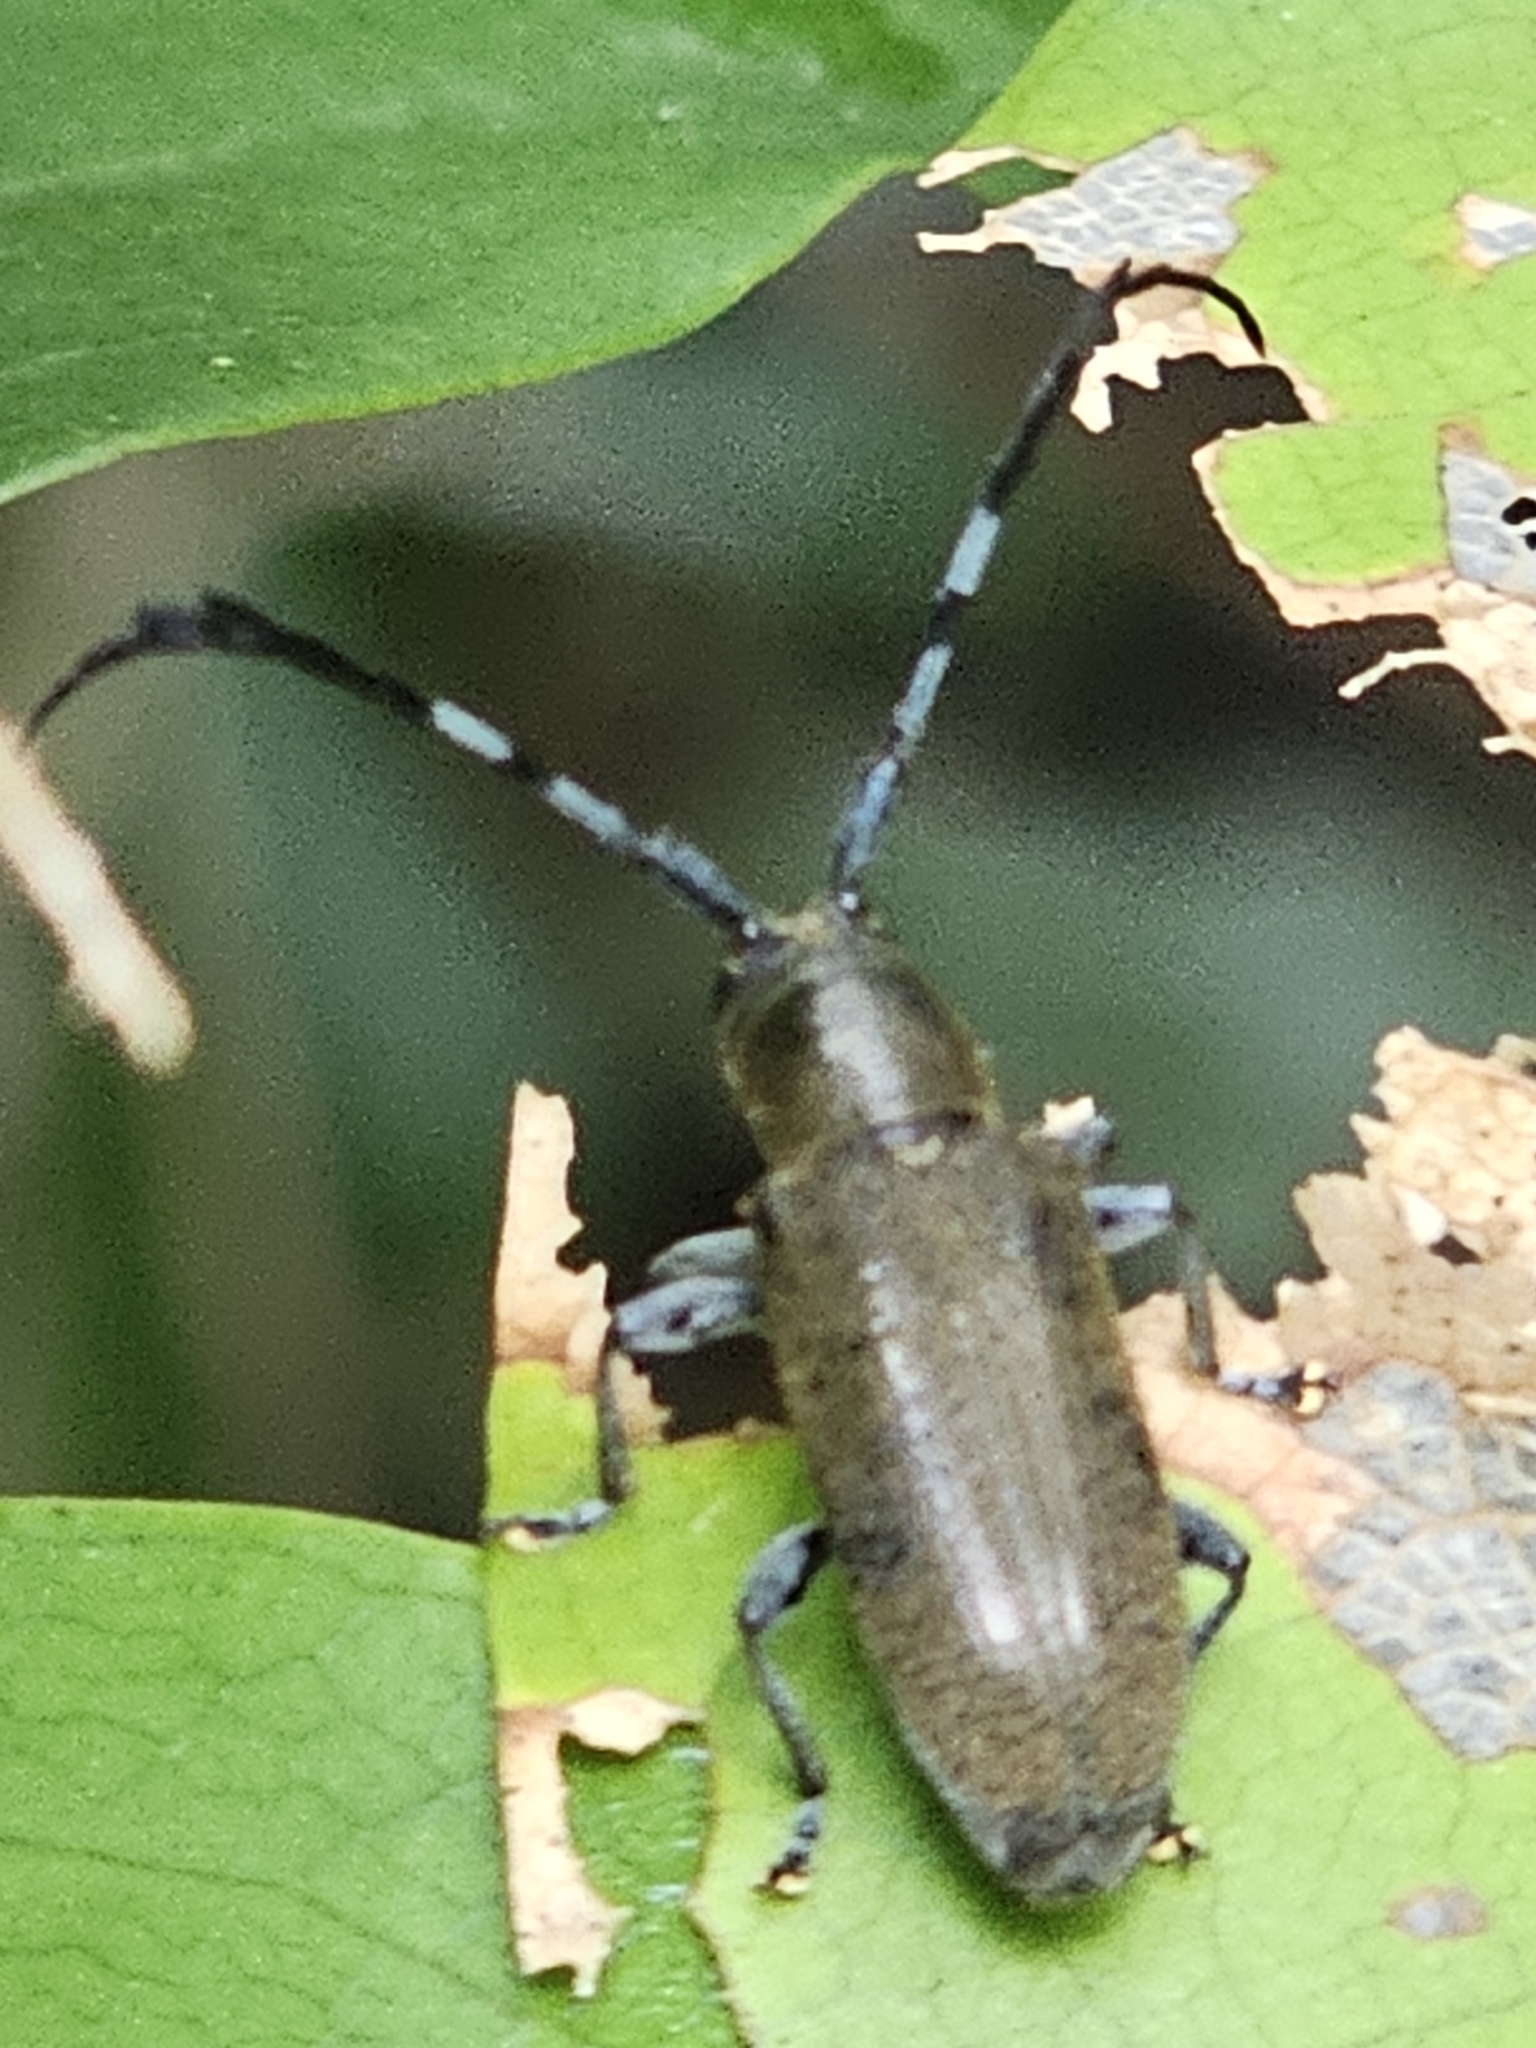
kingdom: Animalia
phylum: Arthropoda
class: Insecta
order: Coleoptera
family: Cerambycidae
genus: Hemicladus
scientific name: Hemicladus
